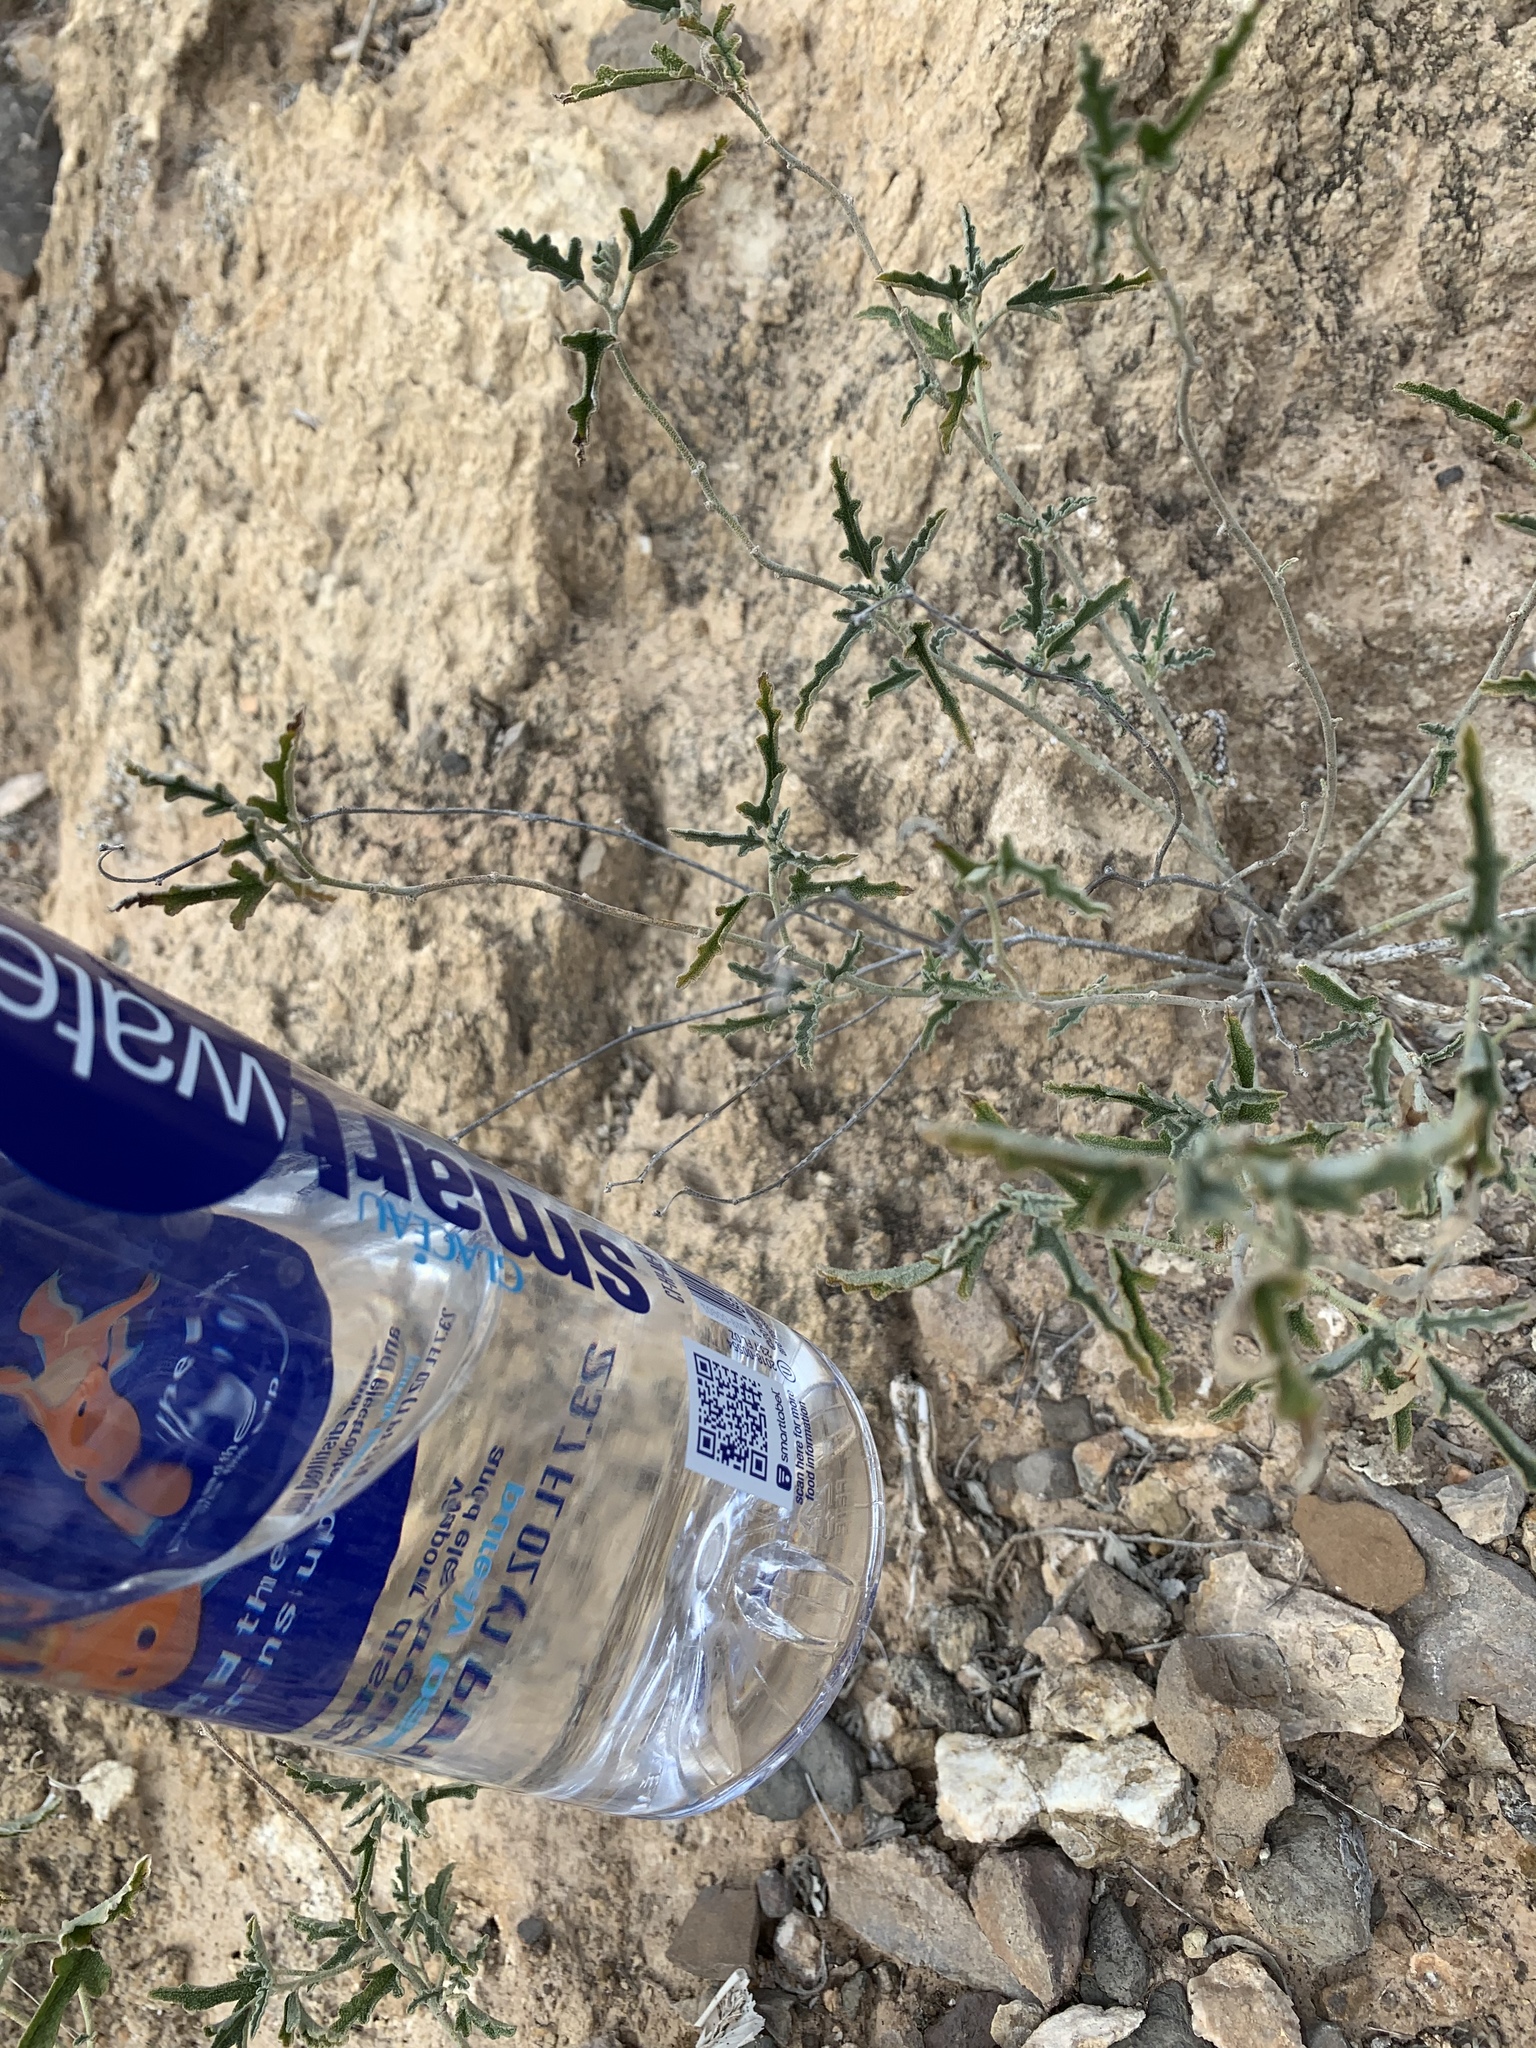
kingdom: Plantae
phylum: Tracheophyta
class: Magnoliopsida
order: Malvales
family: Malvaceae
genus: Sphaeralcea
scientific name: Sphaeralcea hastulata
